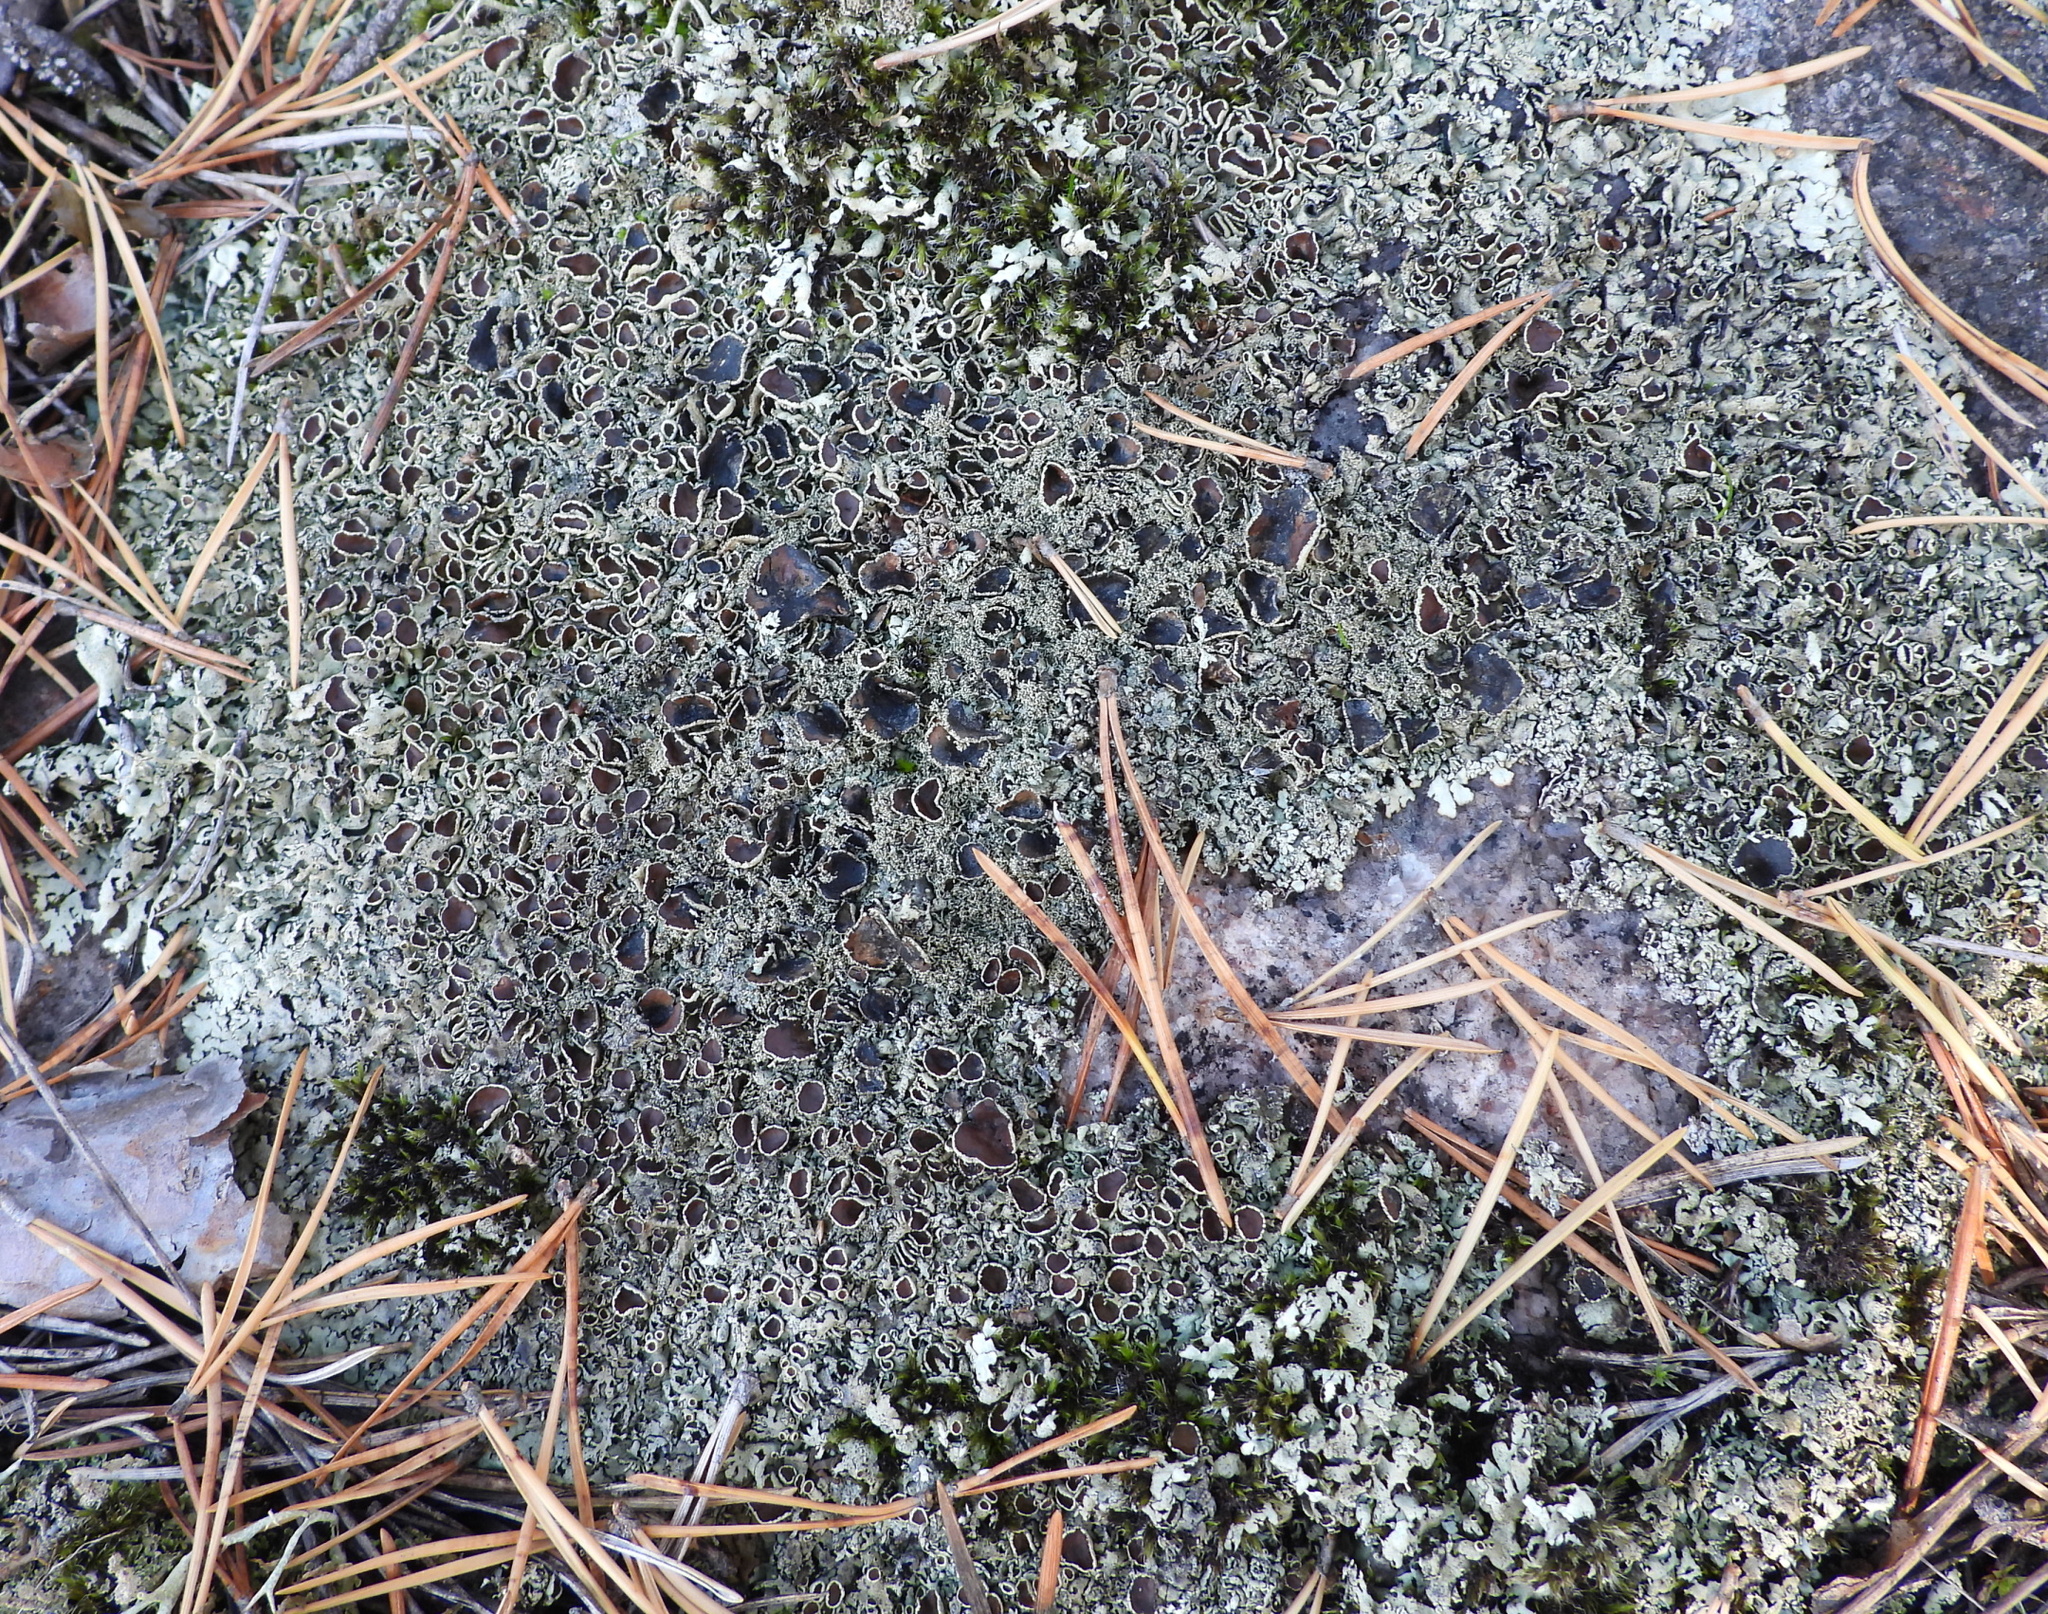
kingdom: Fungi
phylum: Ascomycota
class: Lecanoromycetes
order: Lecanorales
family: Parmeliaceae
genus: Xanthoparmelia
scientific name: Xanthoparmelia conspersa
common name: Peppered rock shield
